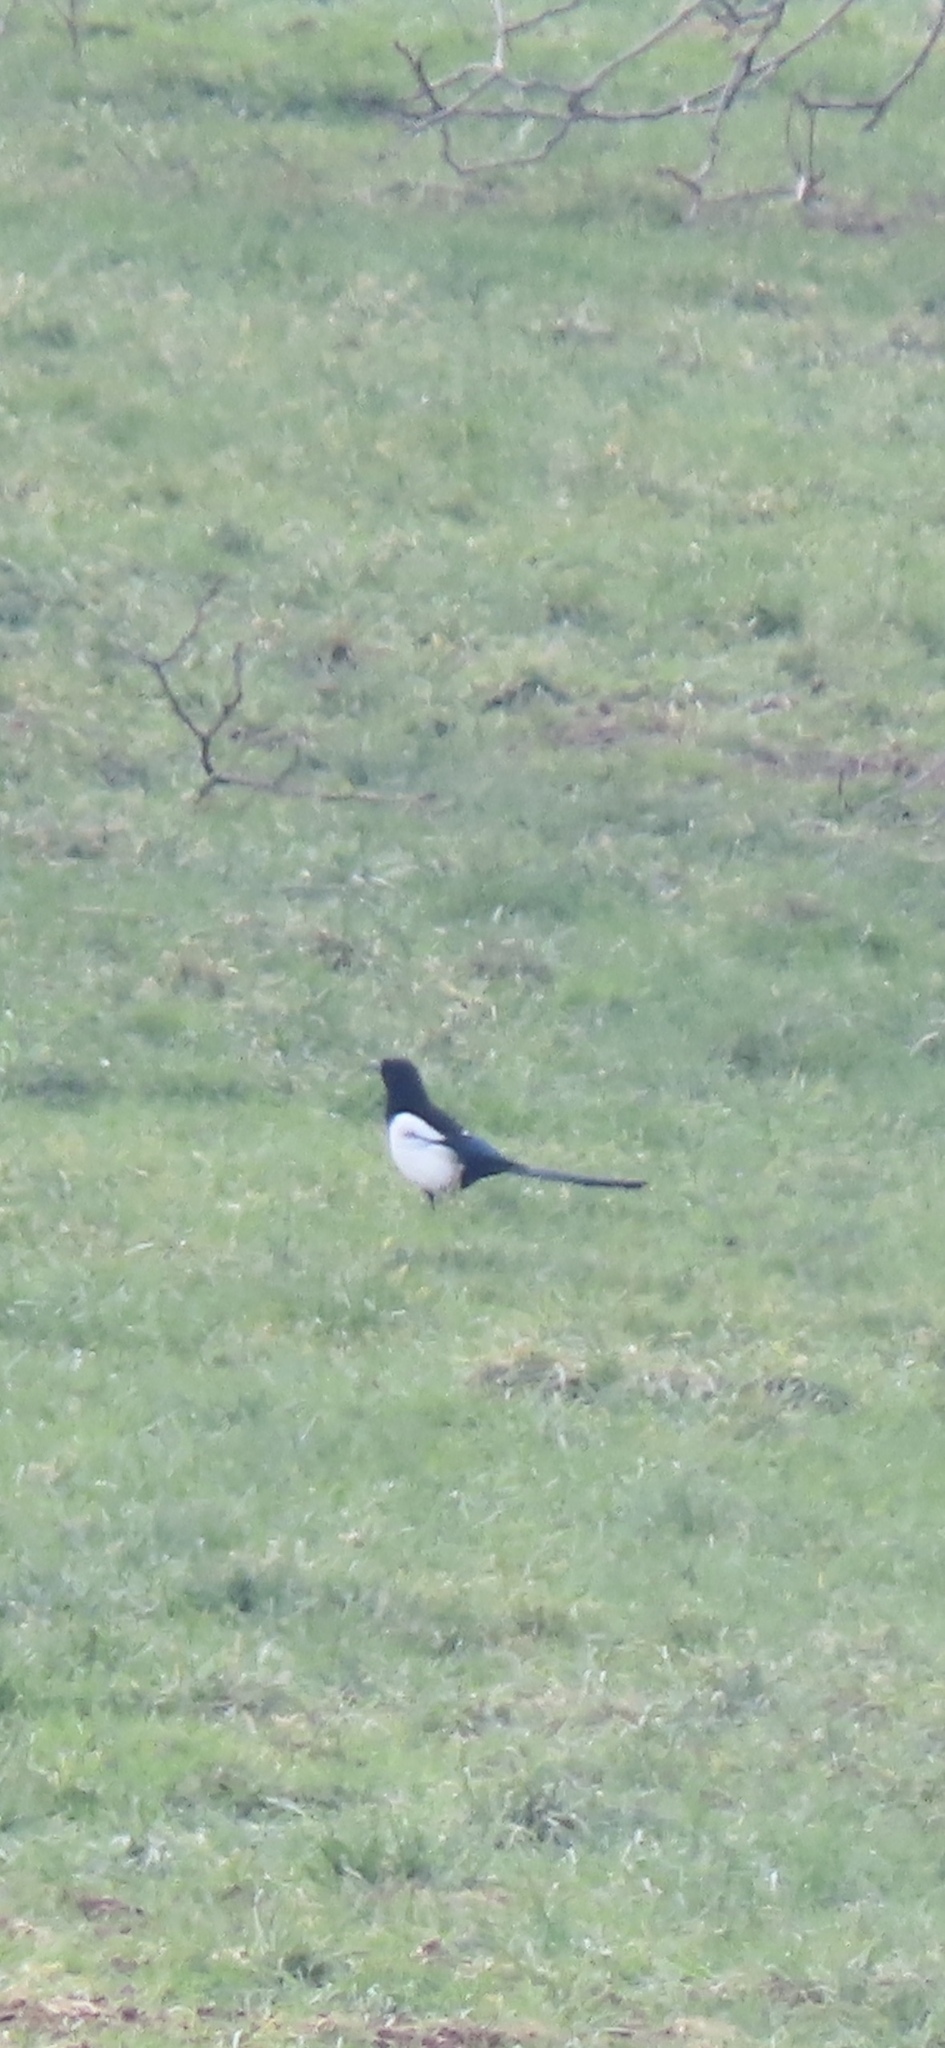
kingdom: Animalia
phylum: Chordata
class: Aves
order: Passeriformes
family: Corvidae
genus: Pica
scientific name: Pica pica
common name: Eurasian magpie
